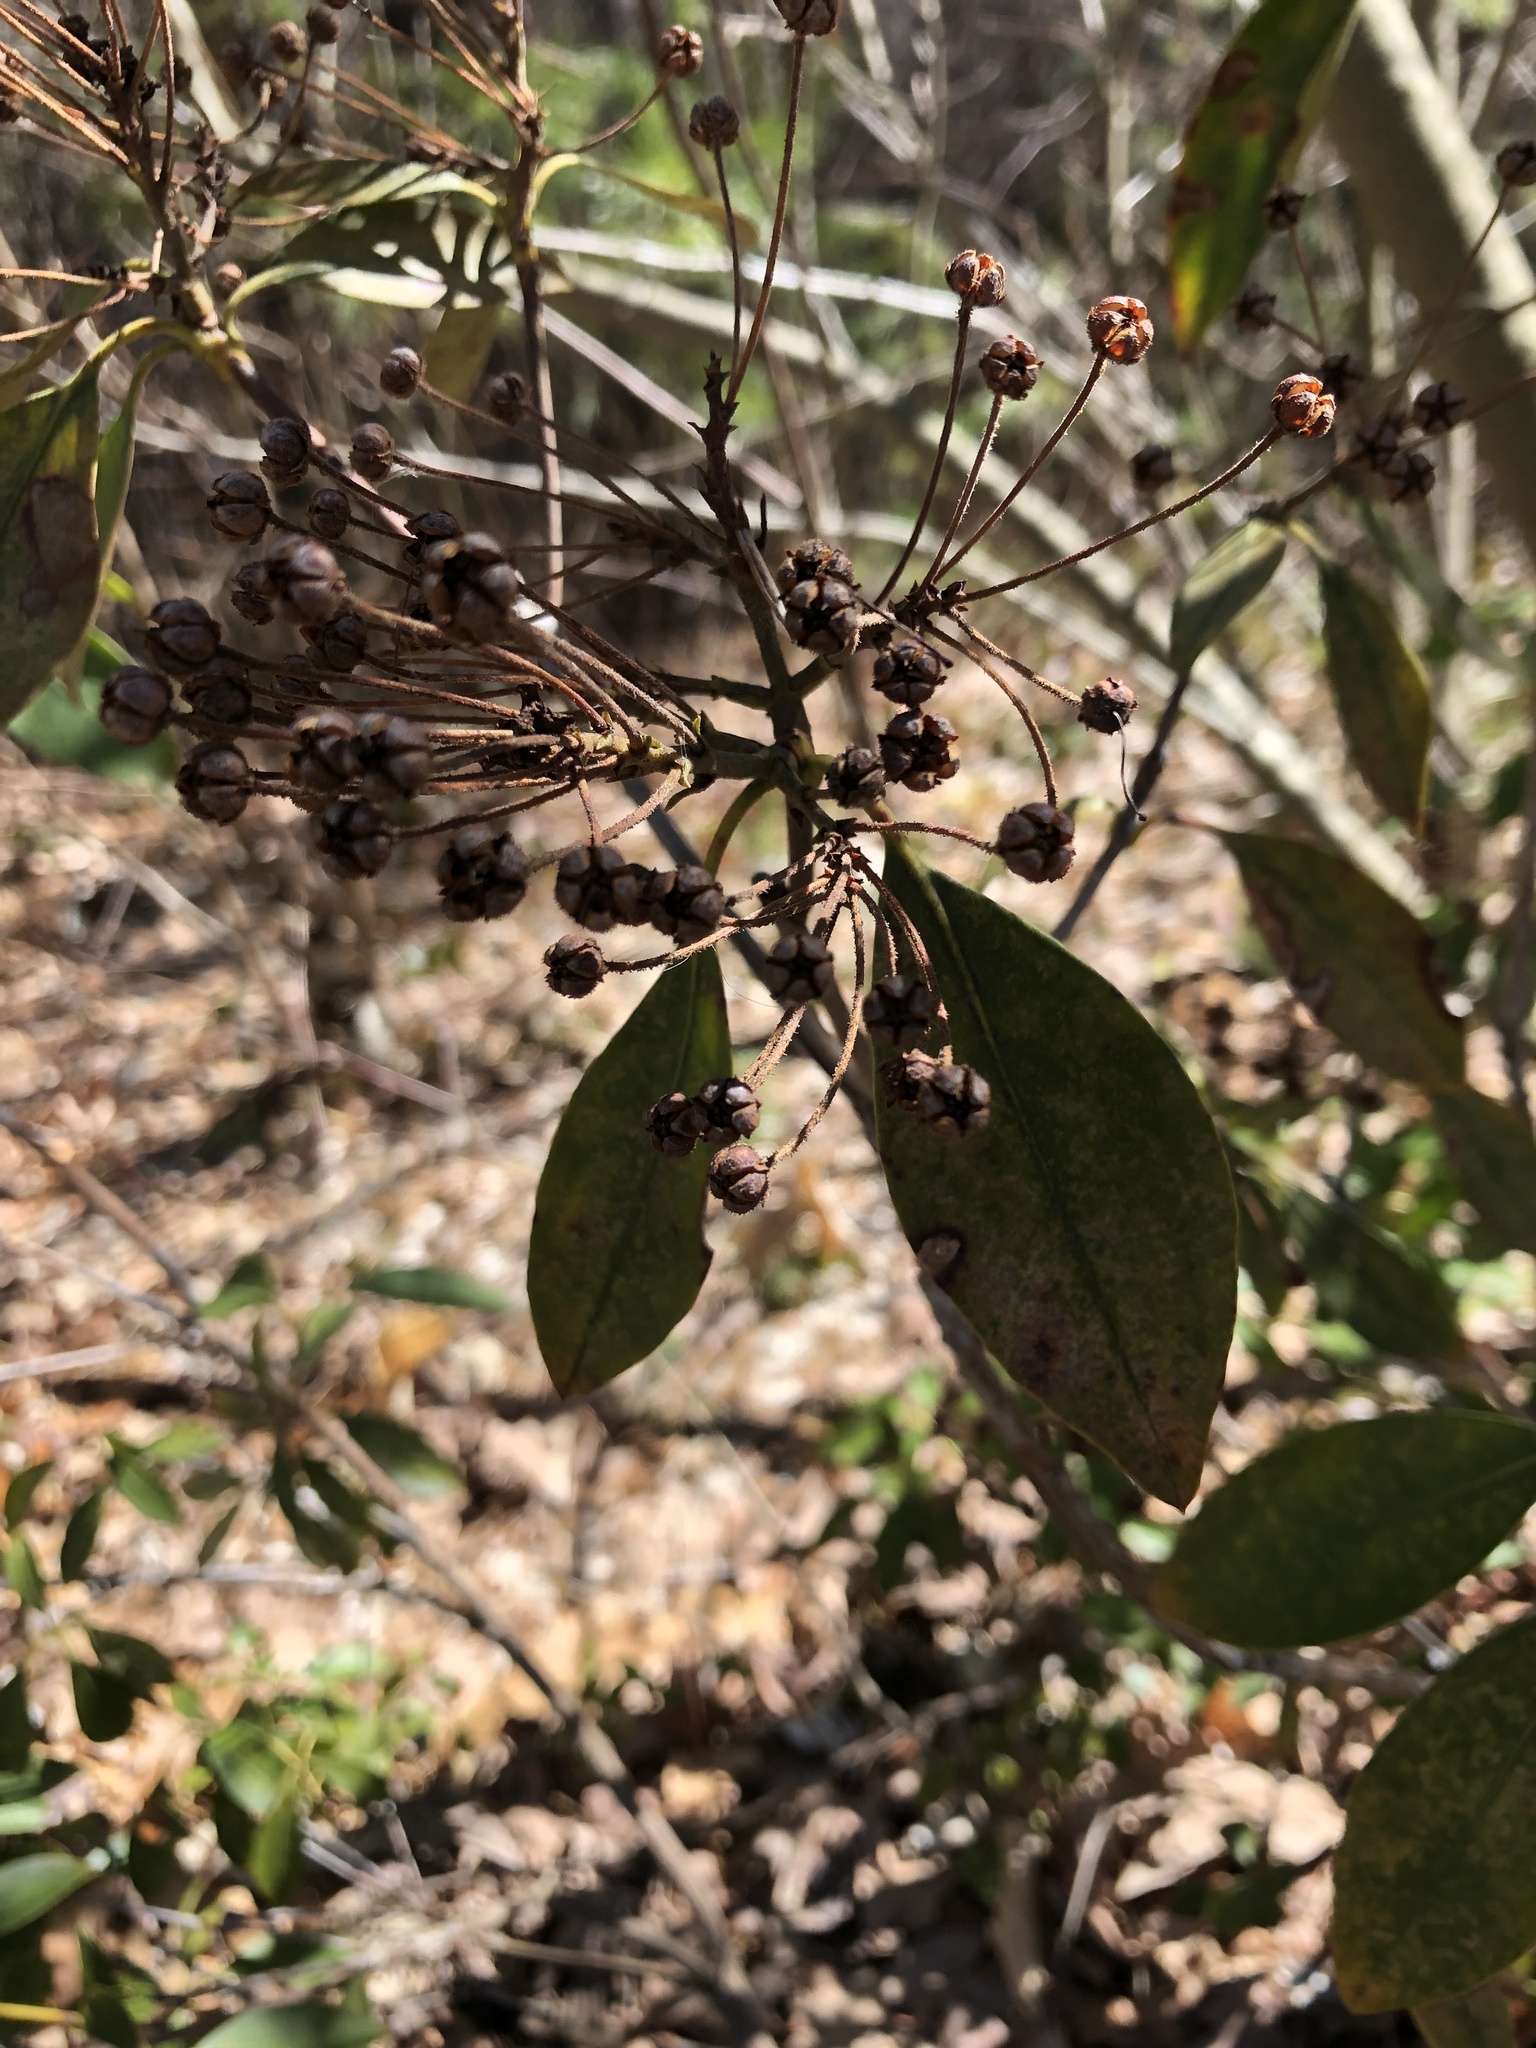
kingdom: Plantae
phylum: Tracheophyta
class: Magnoliopsida
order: Ericales
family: Ericaceae
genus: Kalmia
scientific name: Kalmia latifolia
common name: Mountain-laurel
